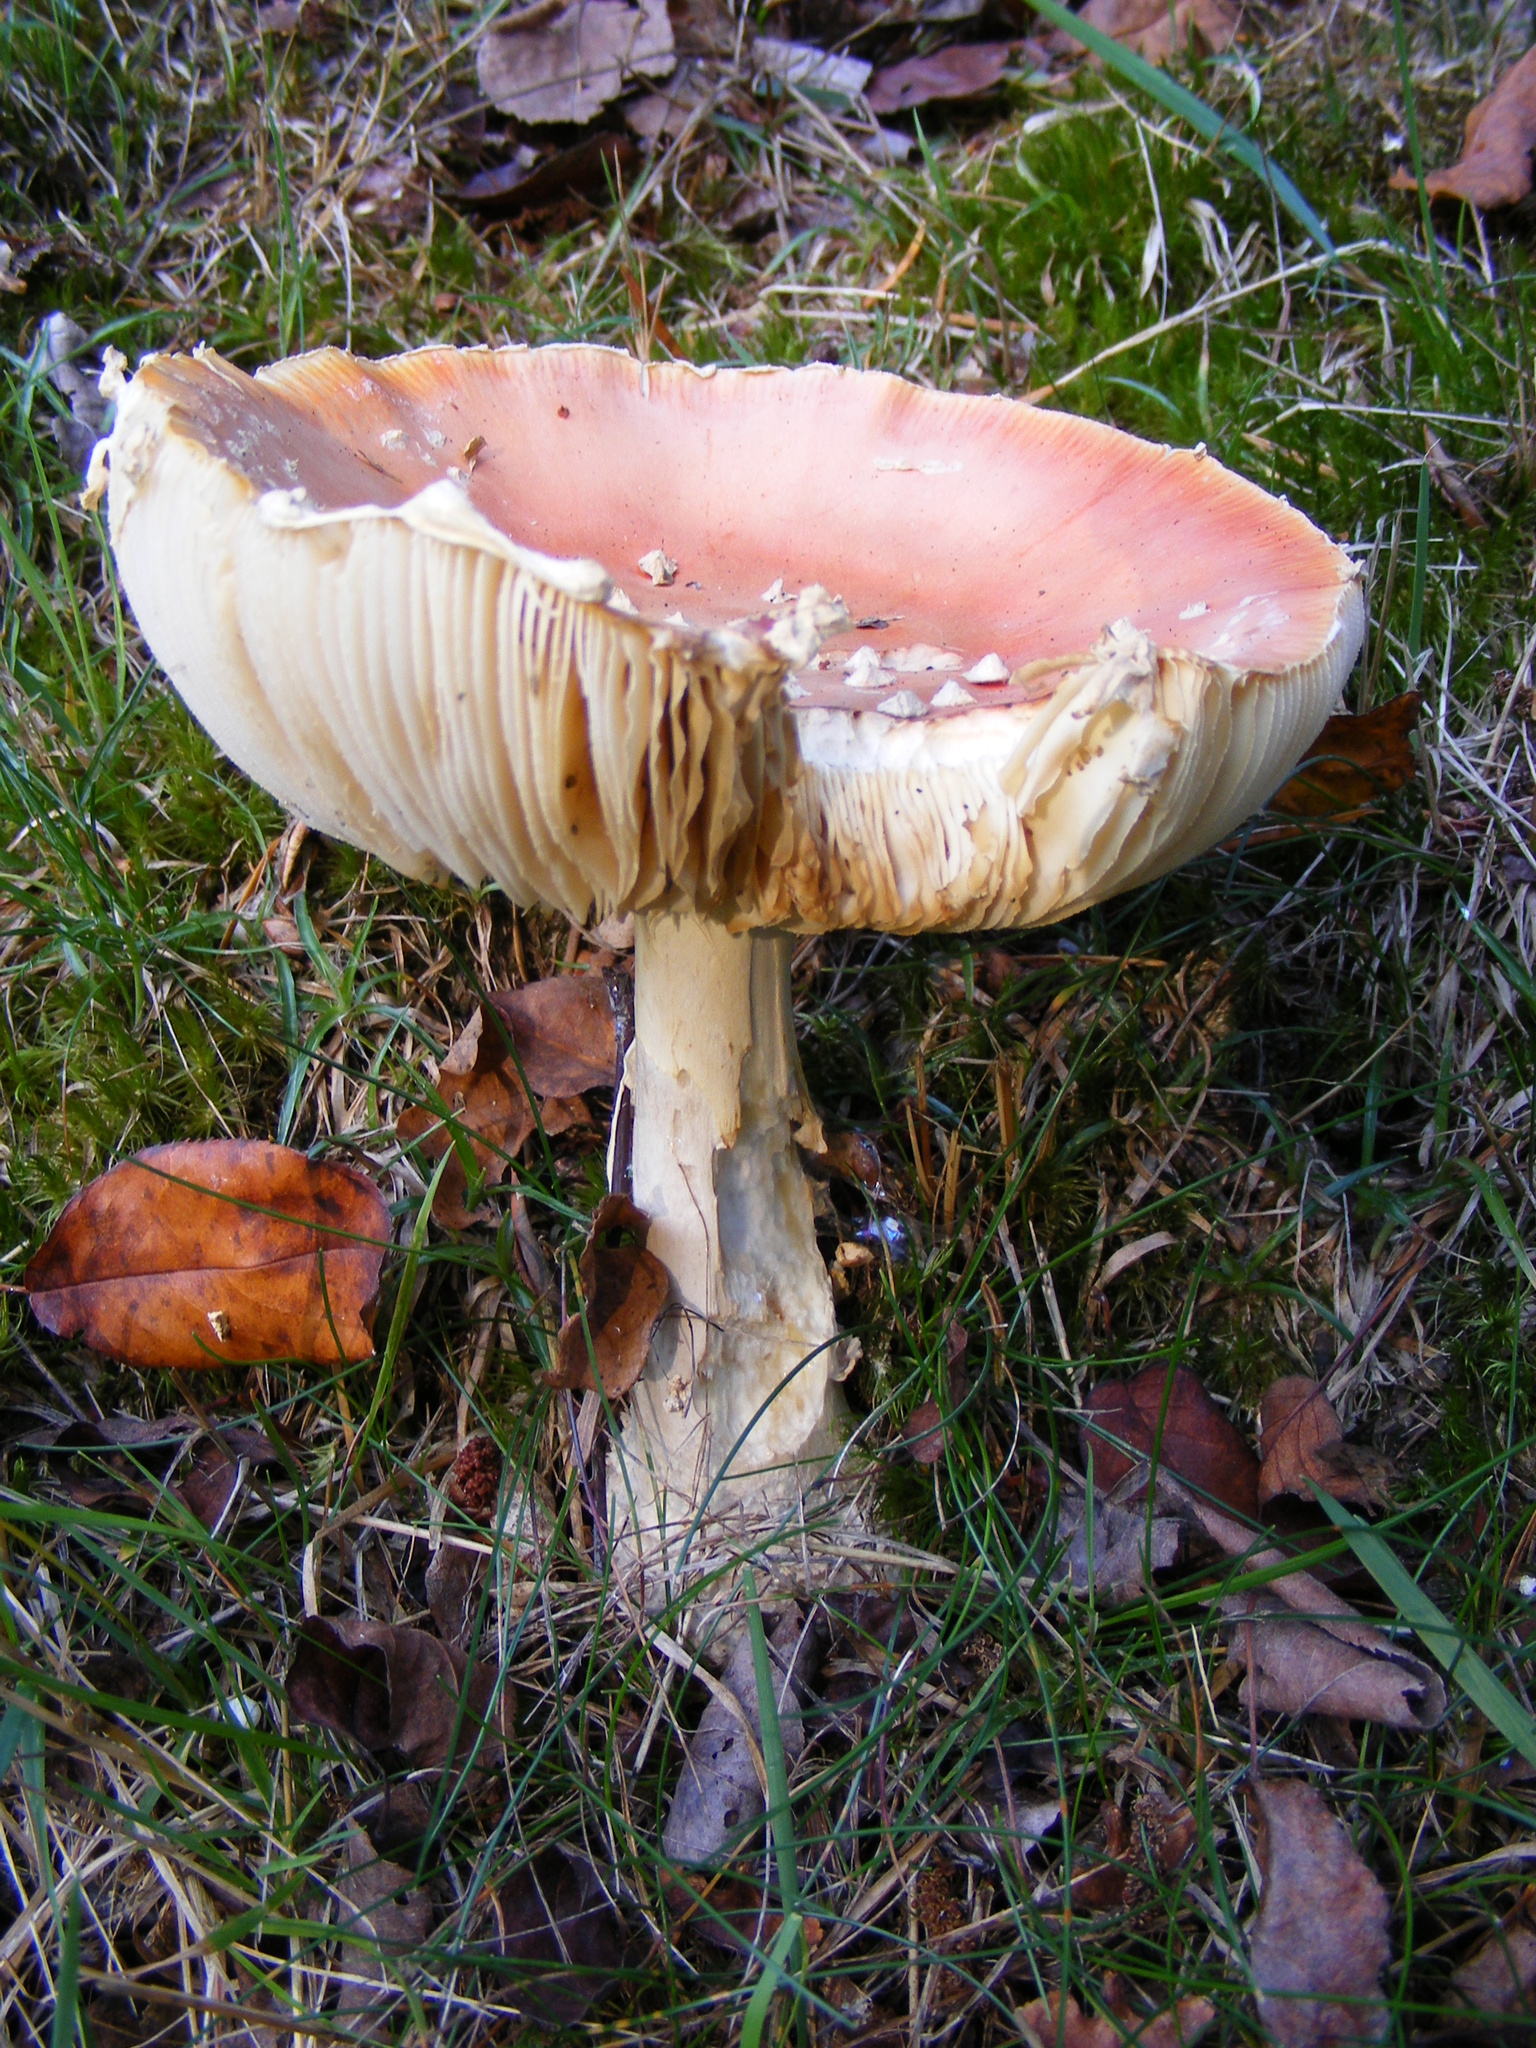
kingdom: Fungi
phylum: Basidiomycota
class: Agaricomycetes
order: Agaricales
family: Amanitaceae
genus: Amanita
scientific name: Amanita muscaria
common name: Fly agaric
